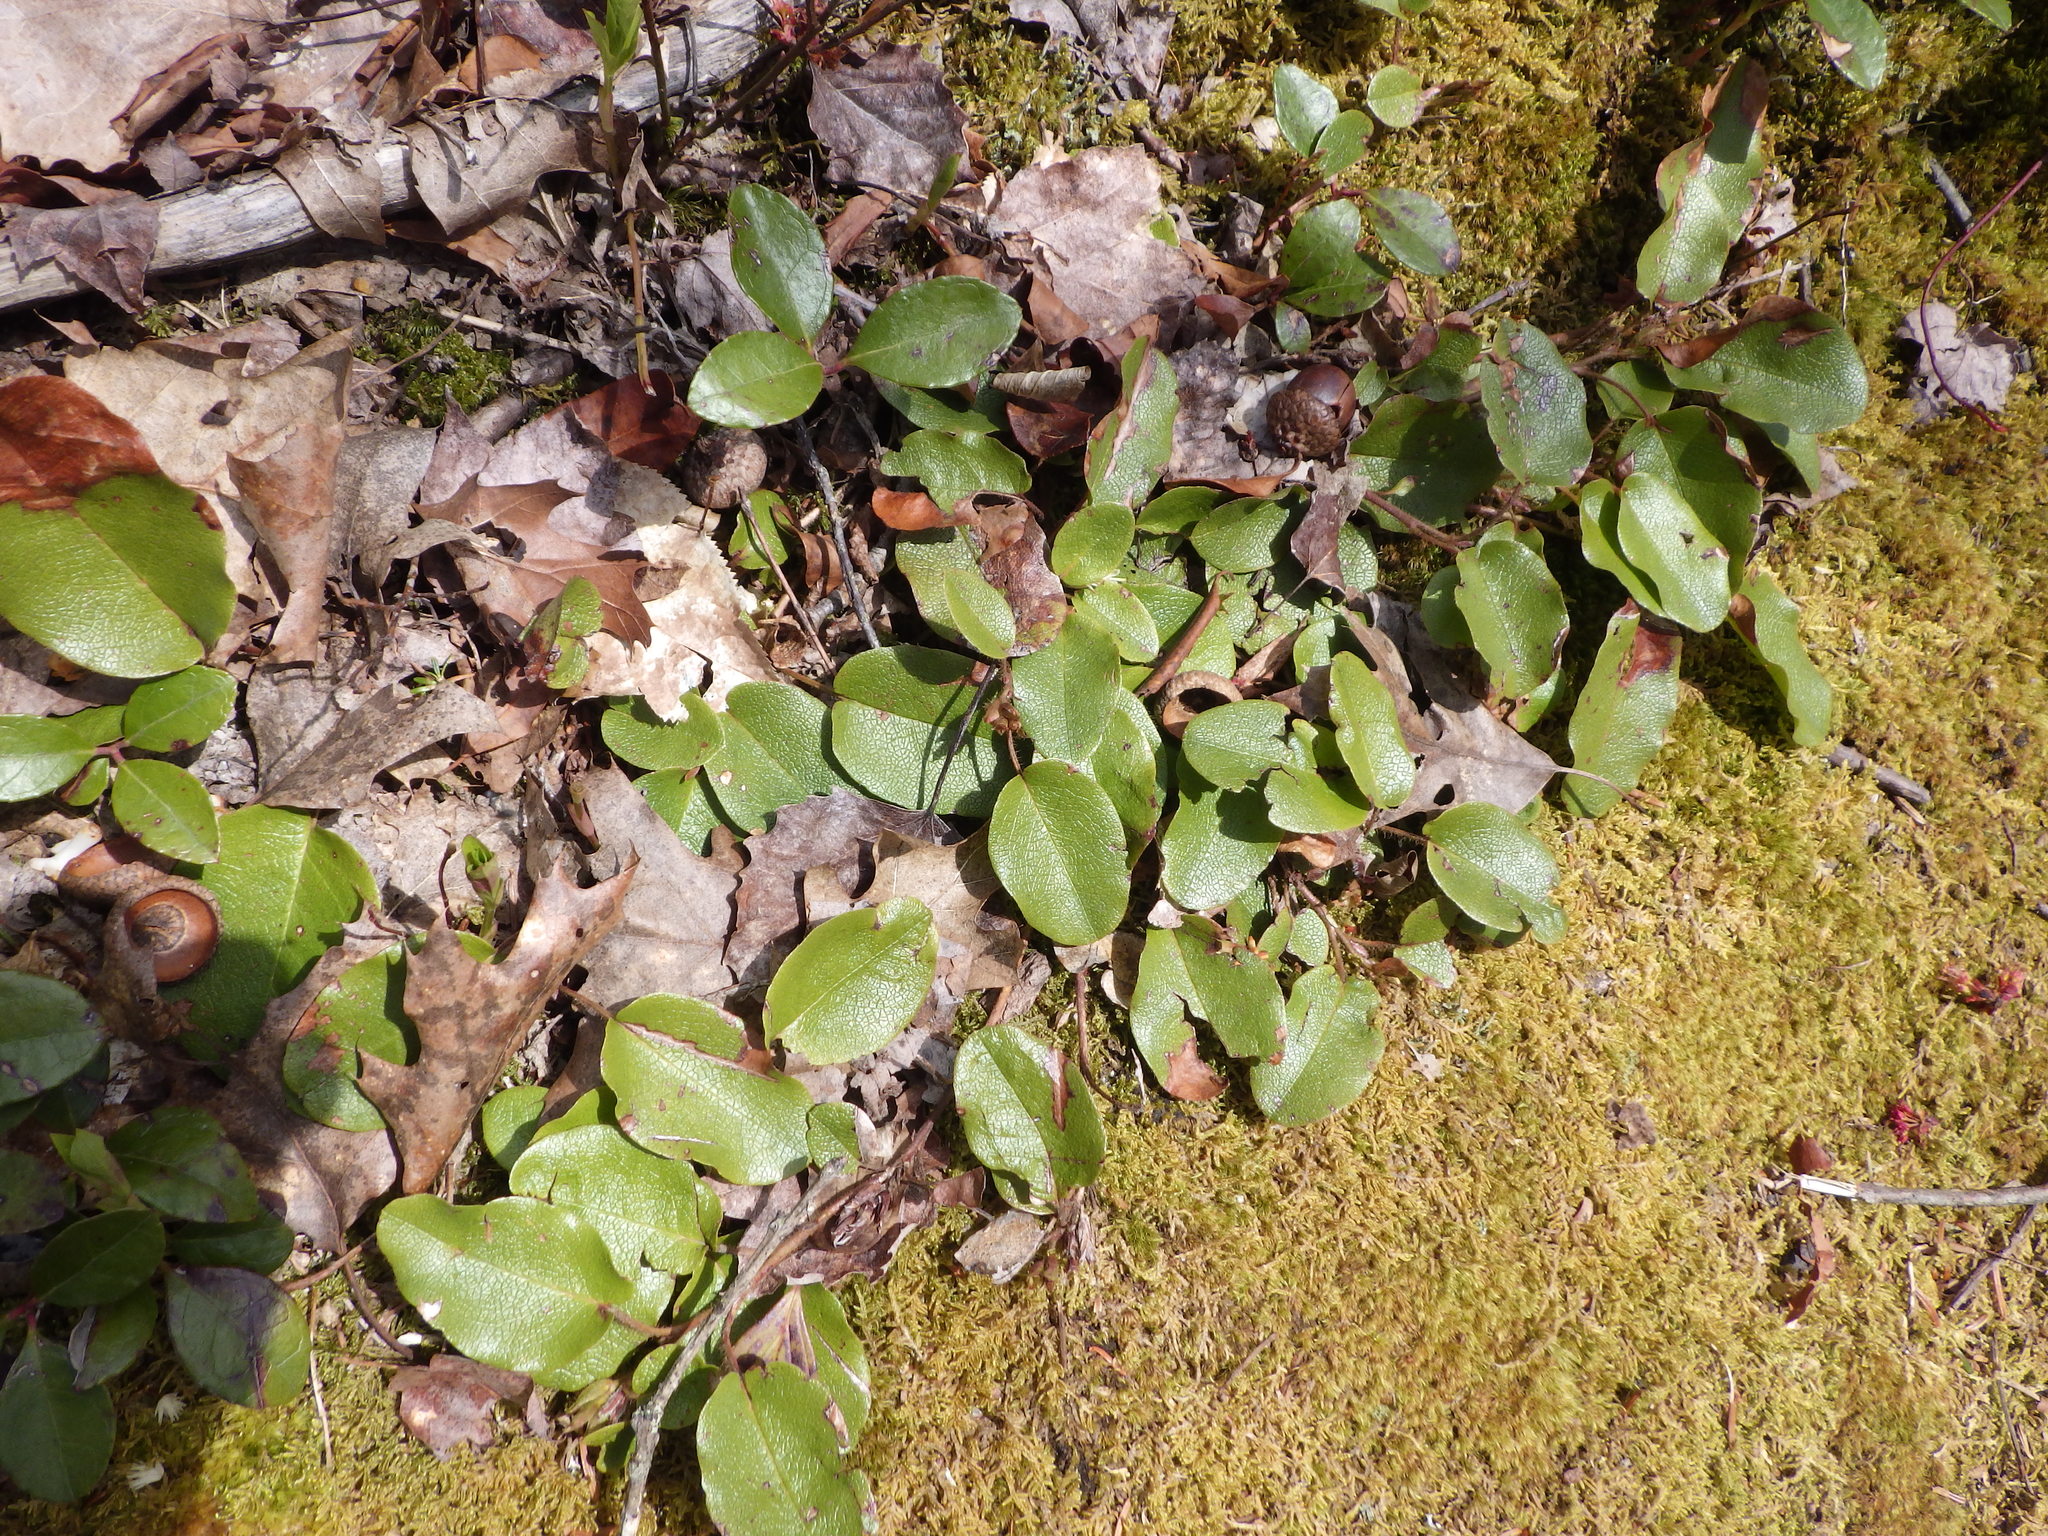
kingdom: Plantae
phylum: Tracheophyta
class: Magnoliopsida
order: Ericales
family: Ericaceae
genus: Epigaea
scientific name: Epigaea repens
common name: Gravelroot
